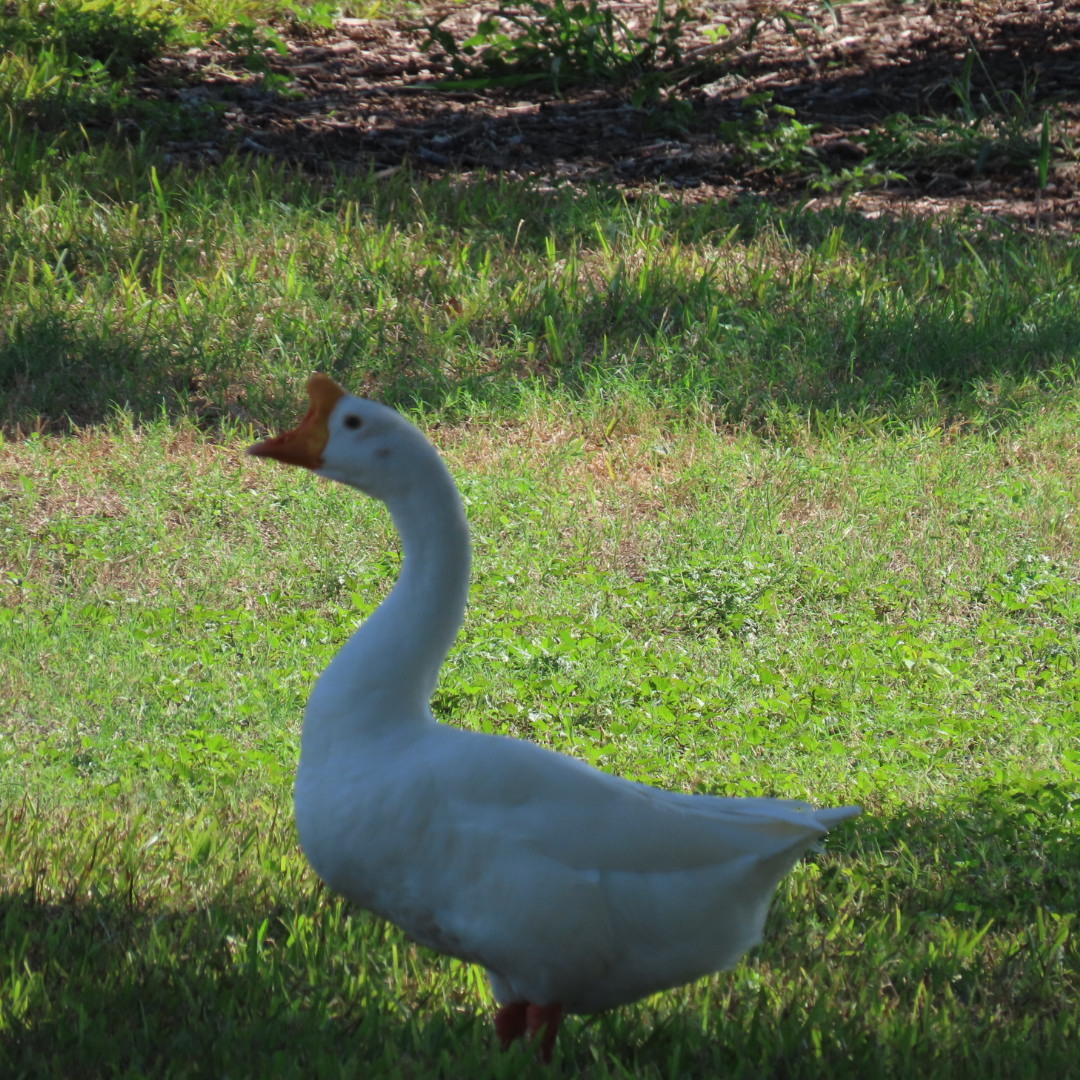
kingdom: Animalia
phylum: Chordata
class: Aves
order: Anseriformes
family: Anatidae
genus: Anser
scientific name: Anser cygnoides
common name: Swan goose
